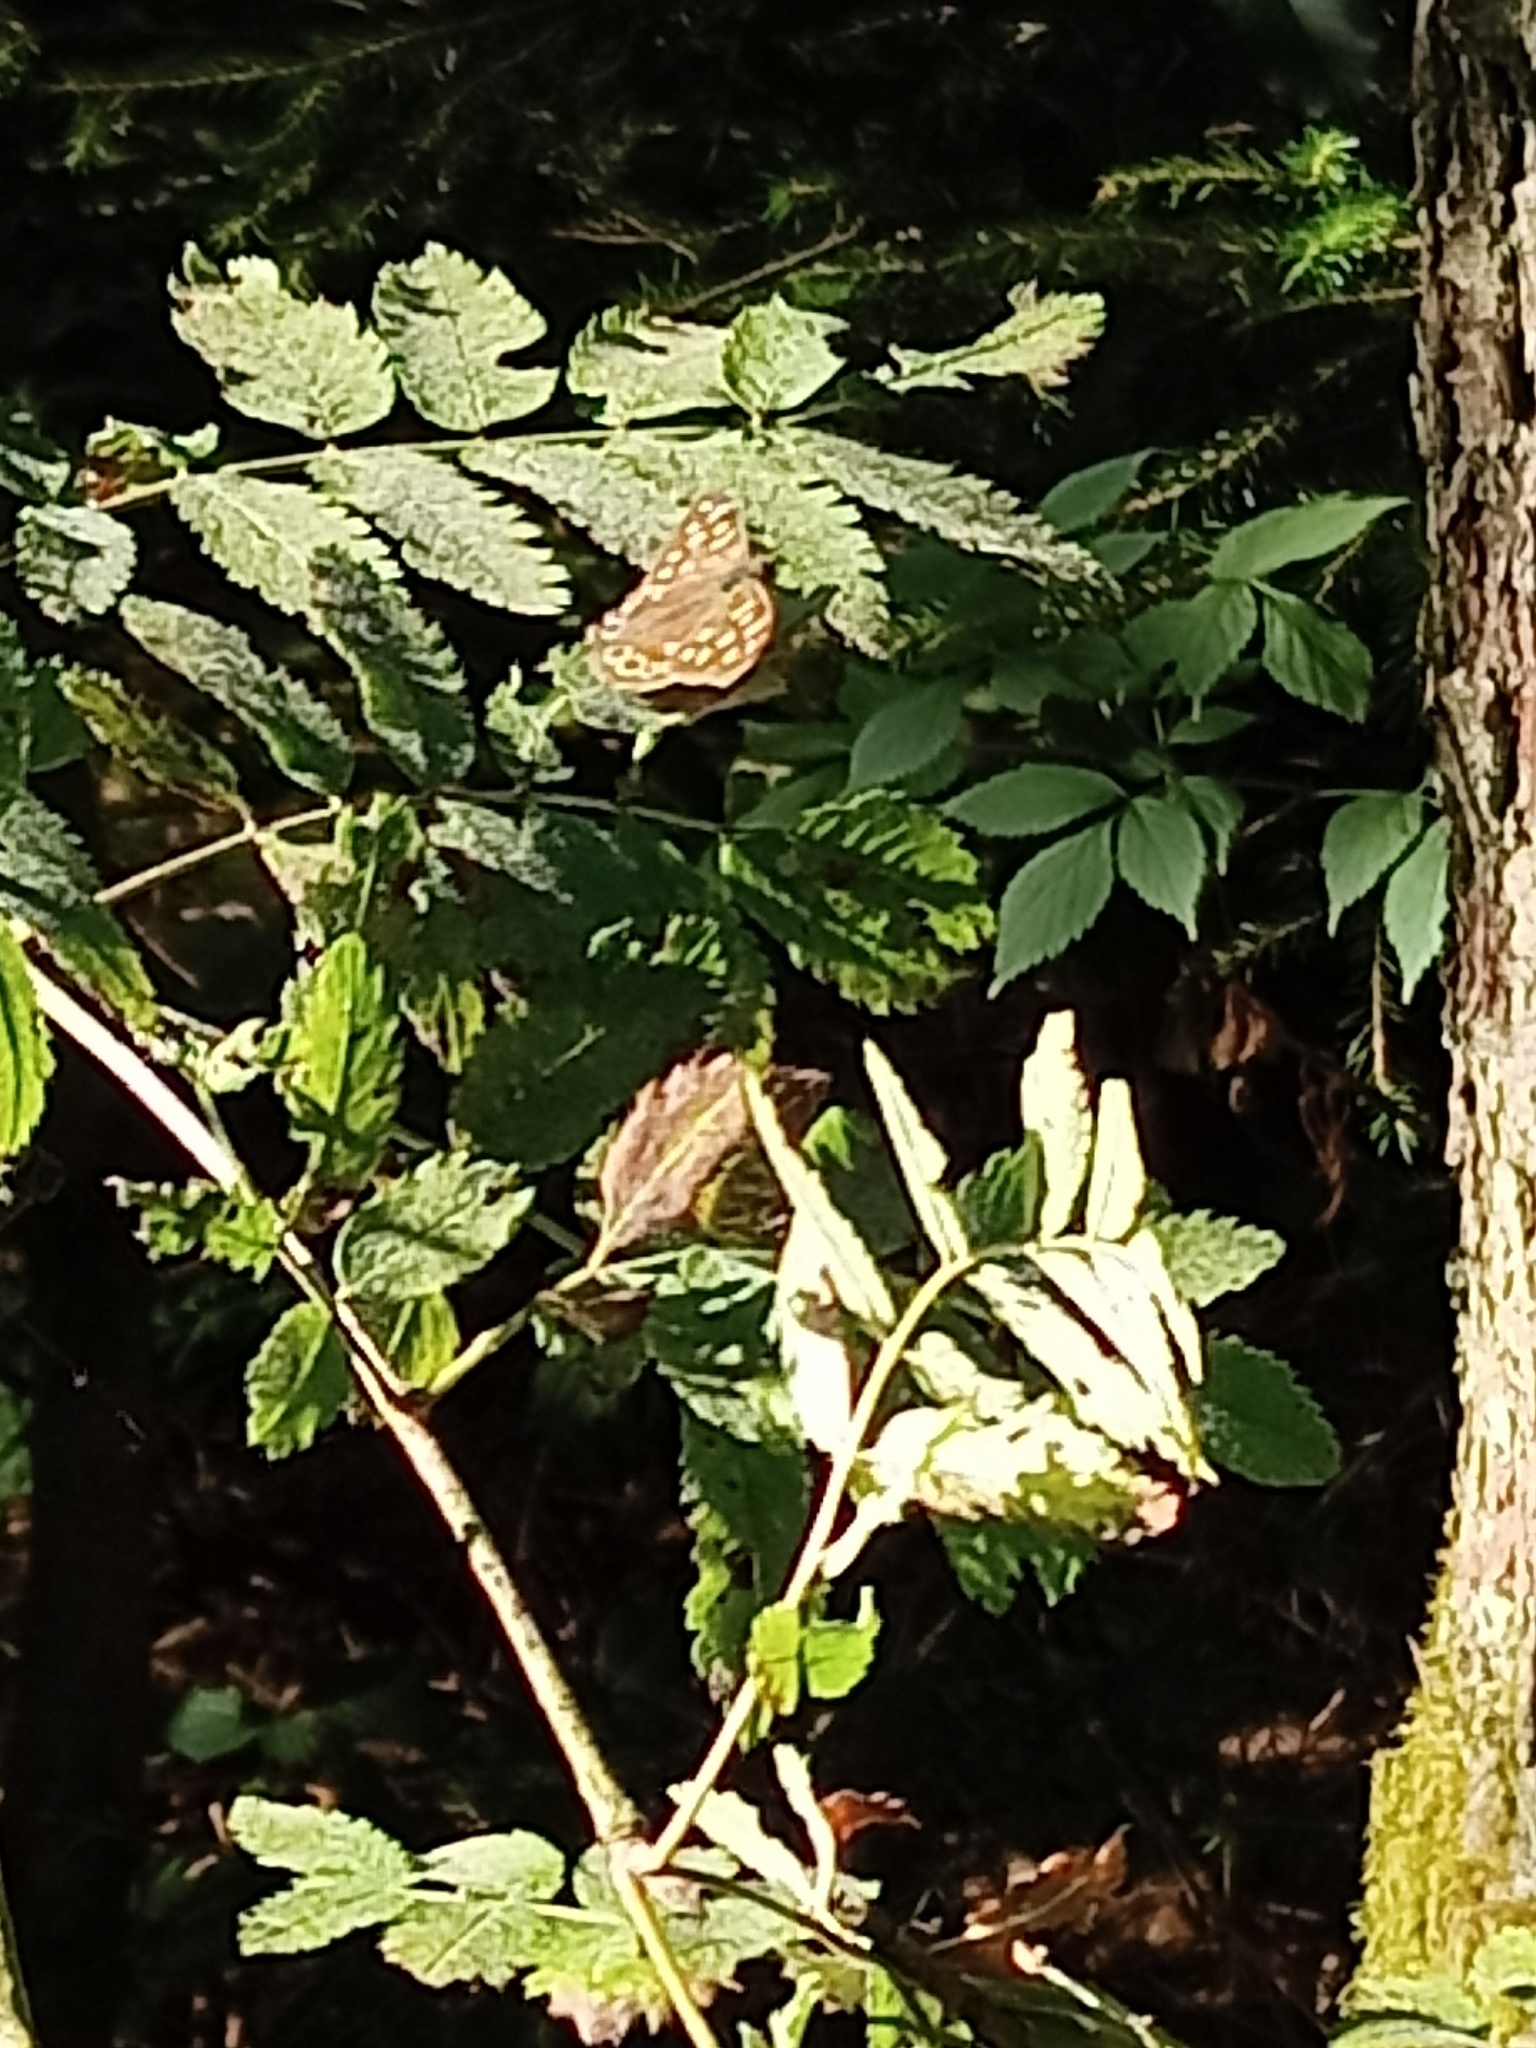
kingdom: Animalia
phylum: Arthropoda
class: Insecta
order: Lepidoptera
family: Nymphalidae
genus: Pararge
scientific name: Pararge aegeria
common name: Speckled wood
